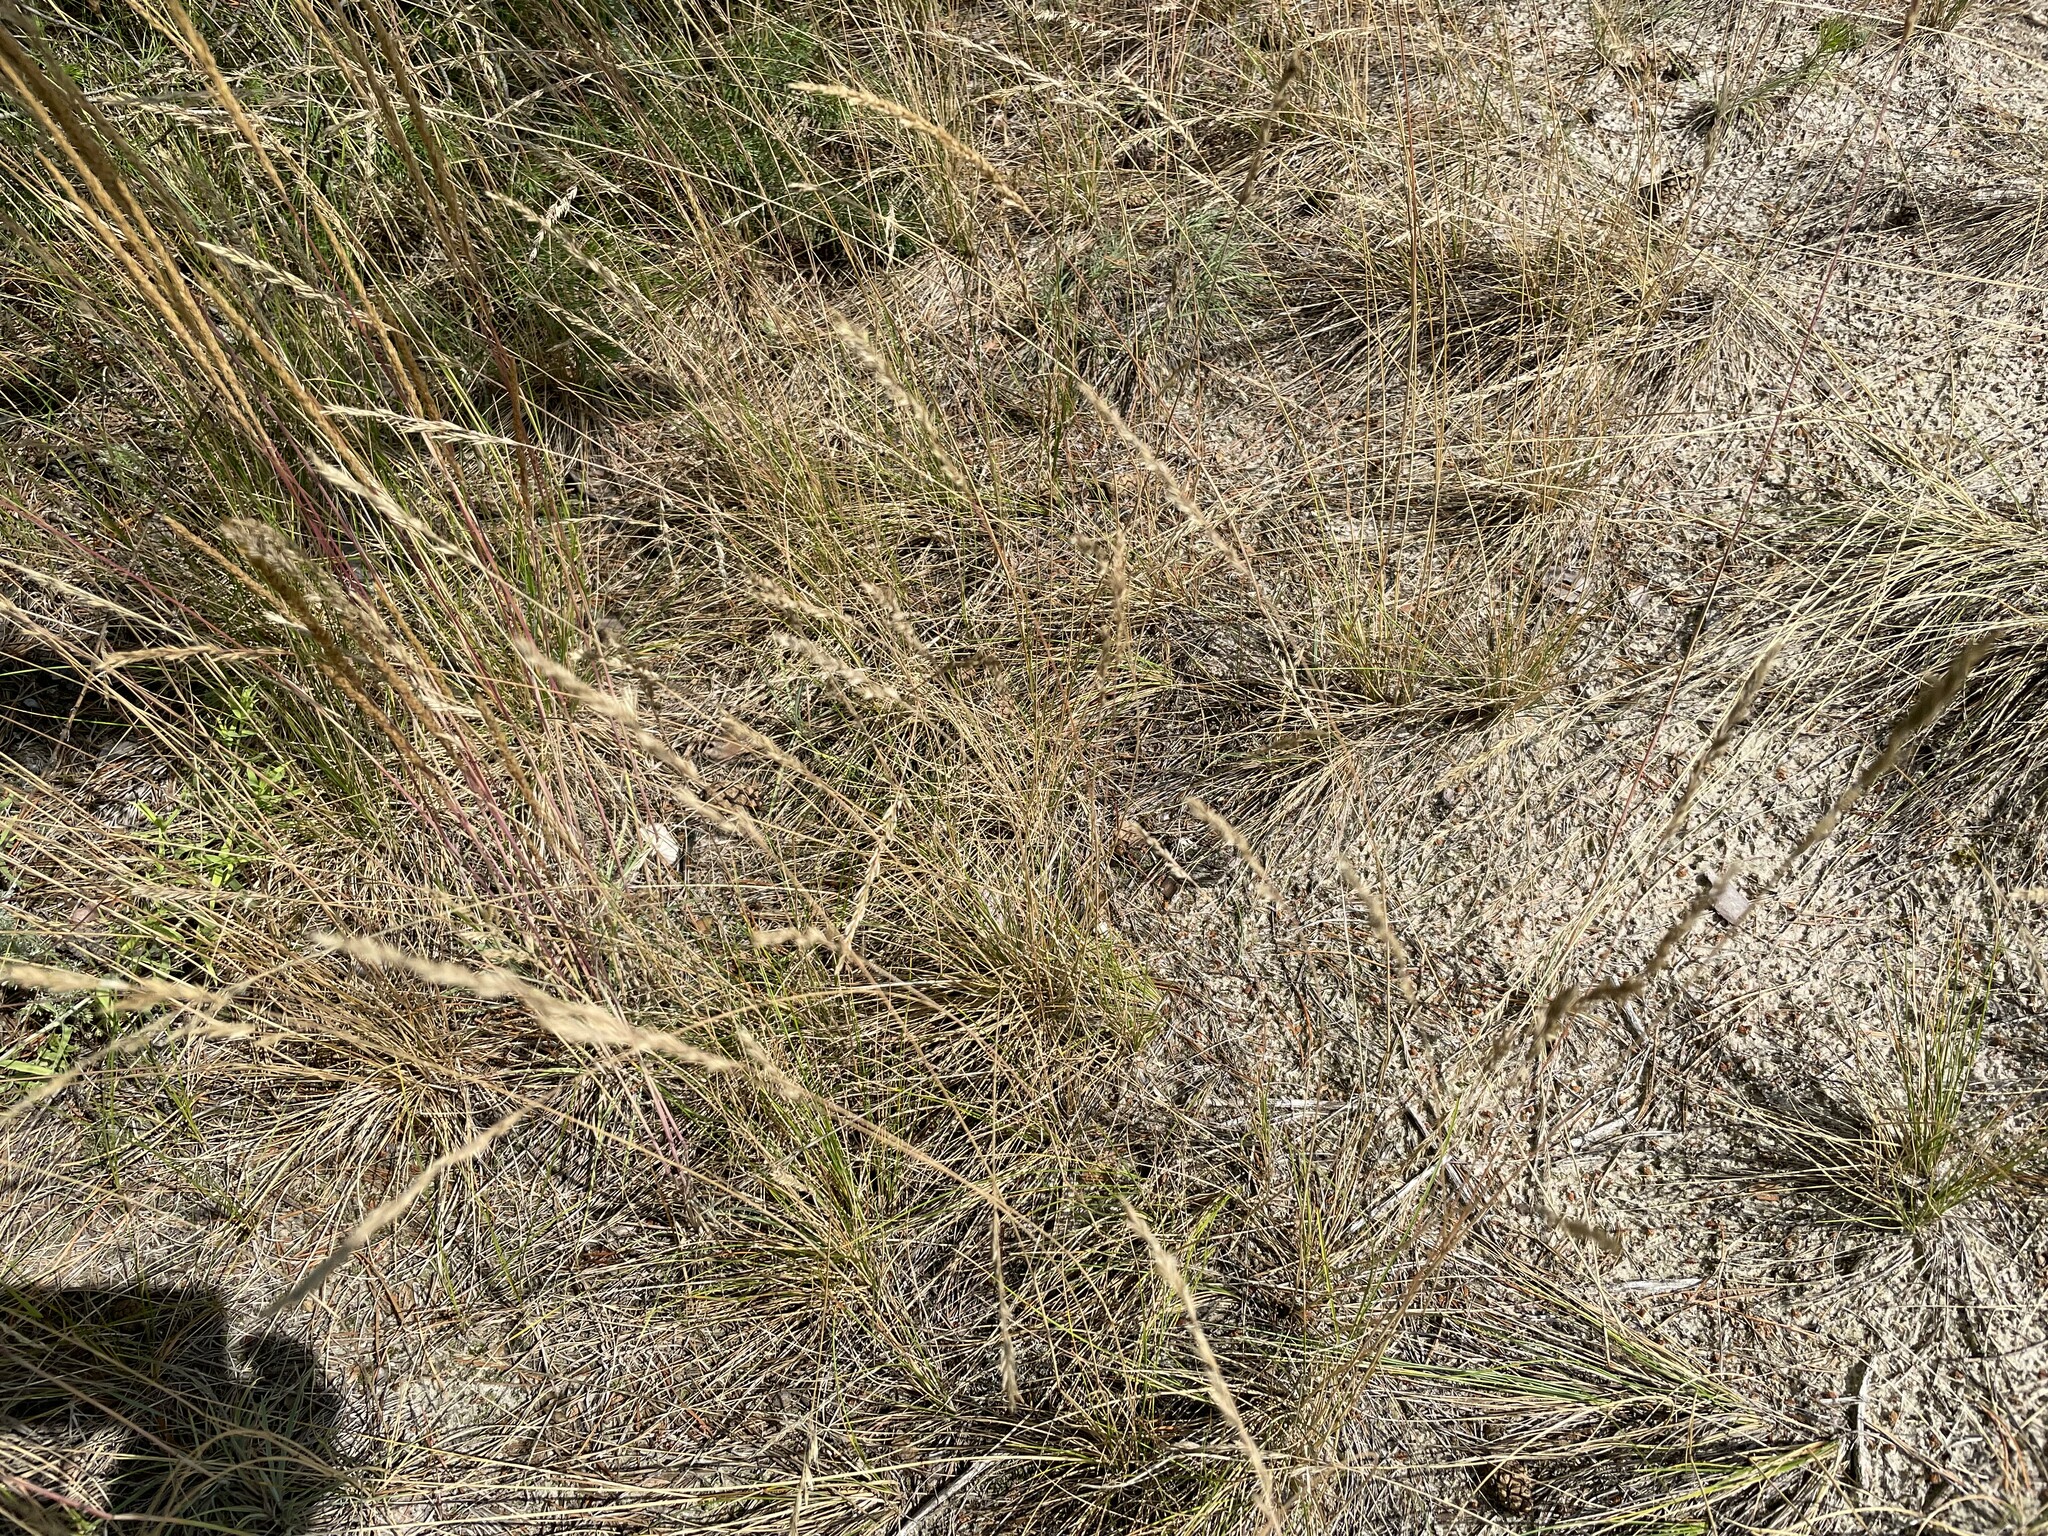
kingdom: Plantae
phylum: Tracheophyta
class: Liliopsida
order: Poales
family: Poaceae
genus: Festuca
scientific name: Festuca beckeri
